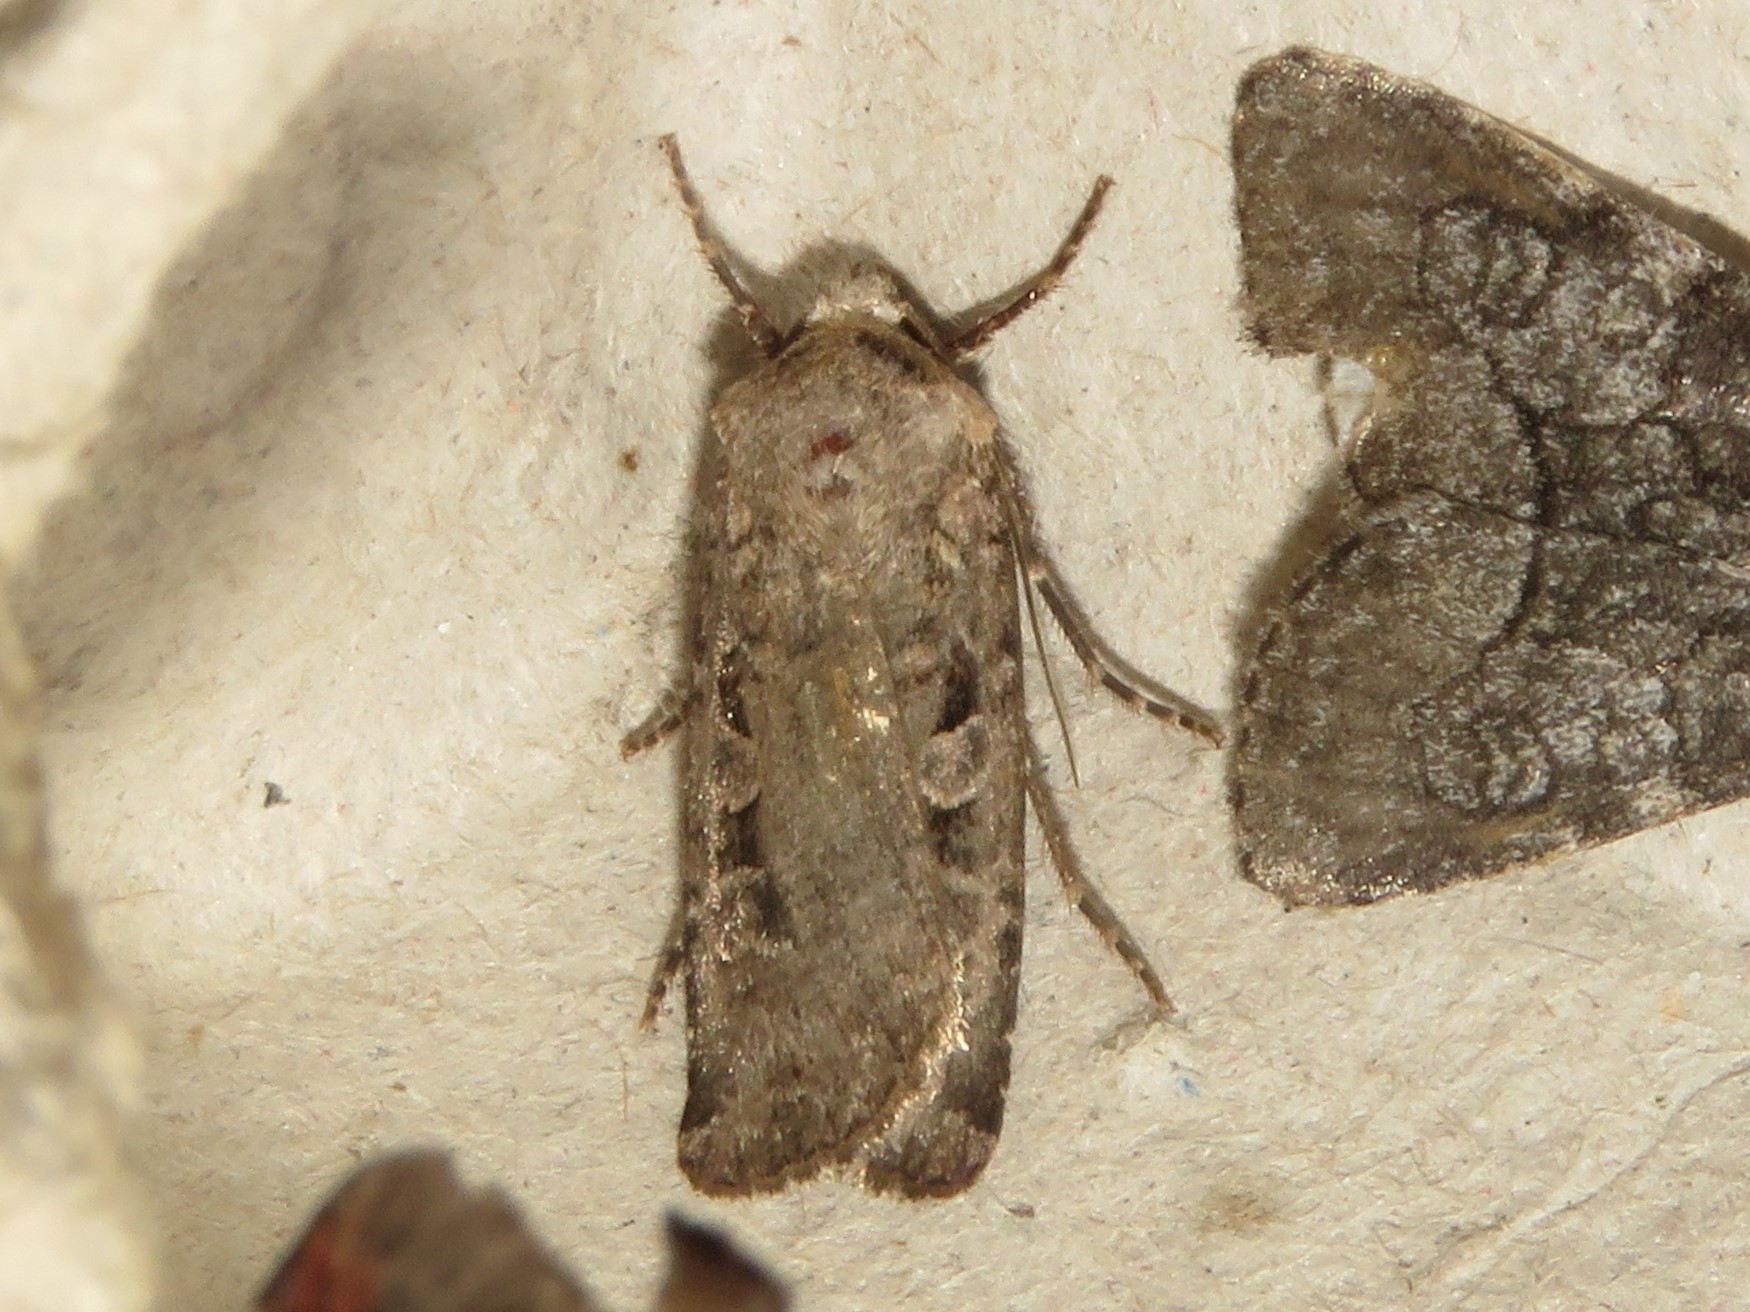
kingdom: Animalia
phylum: Arthropoda
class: Insecta
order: Lepidoptera
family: Noctuidae
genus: Euxoa
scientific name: Euxoa tessellata
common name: Striped cutworm
